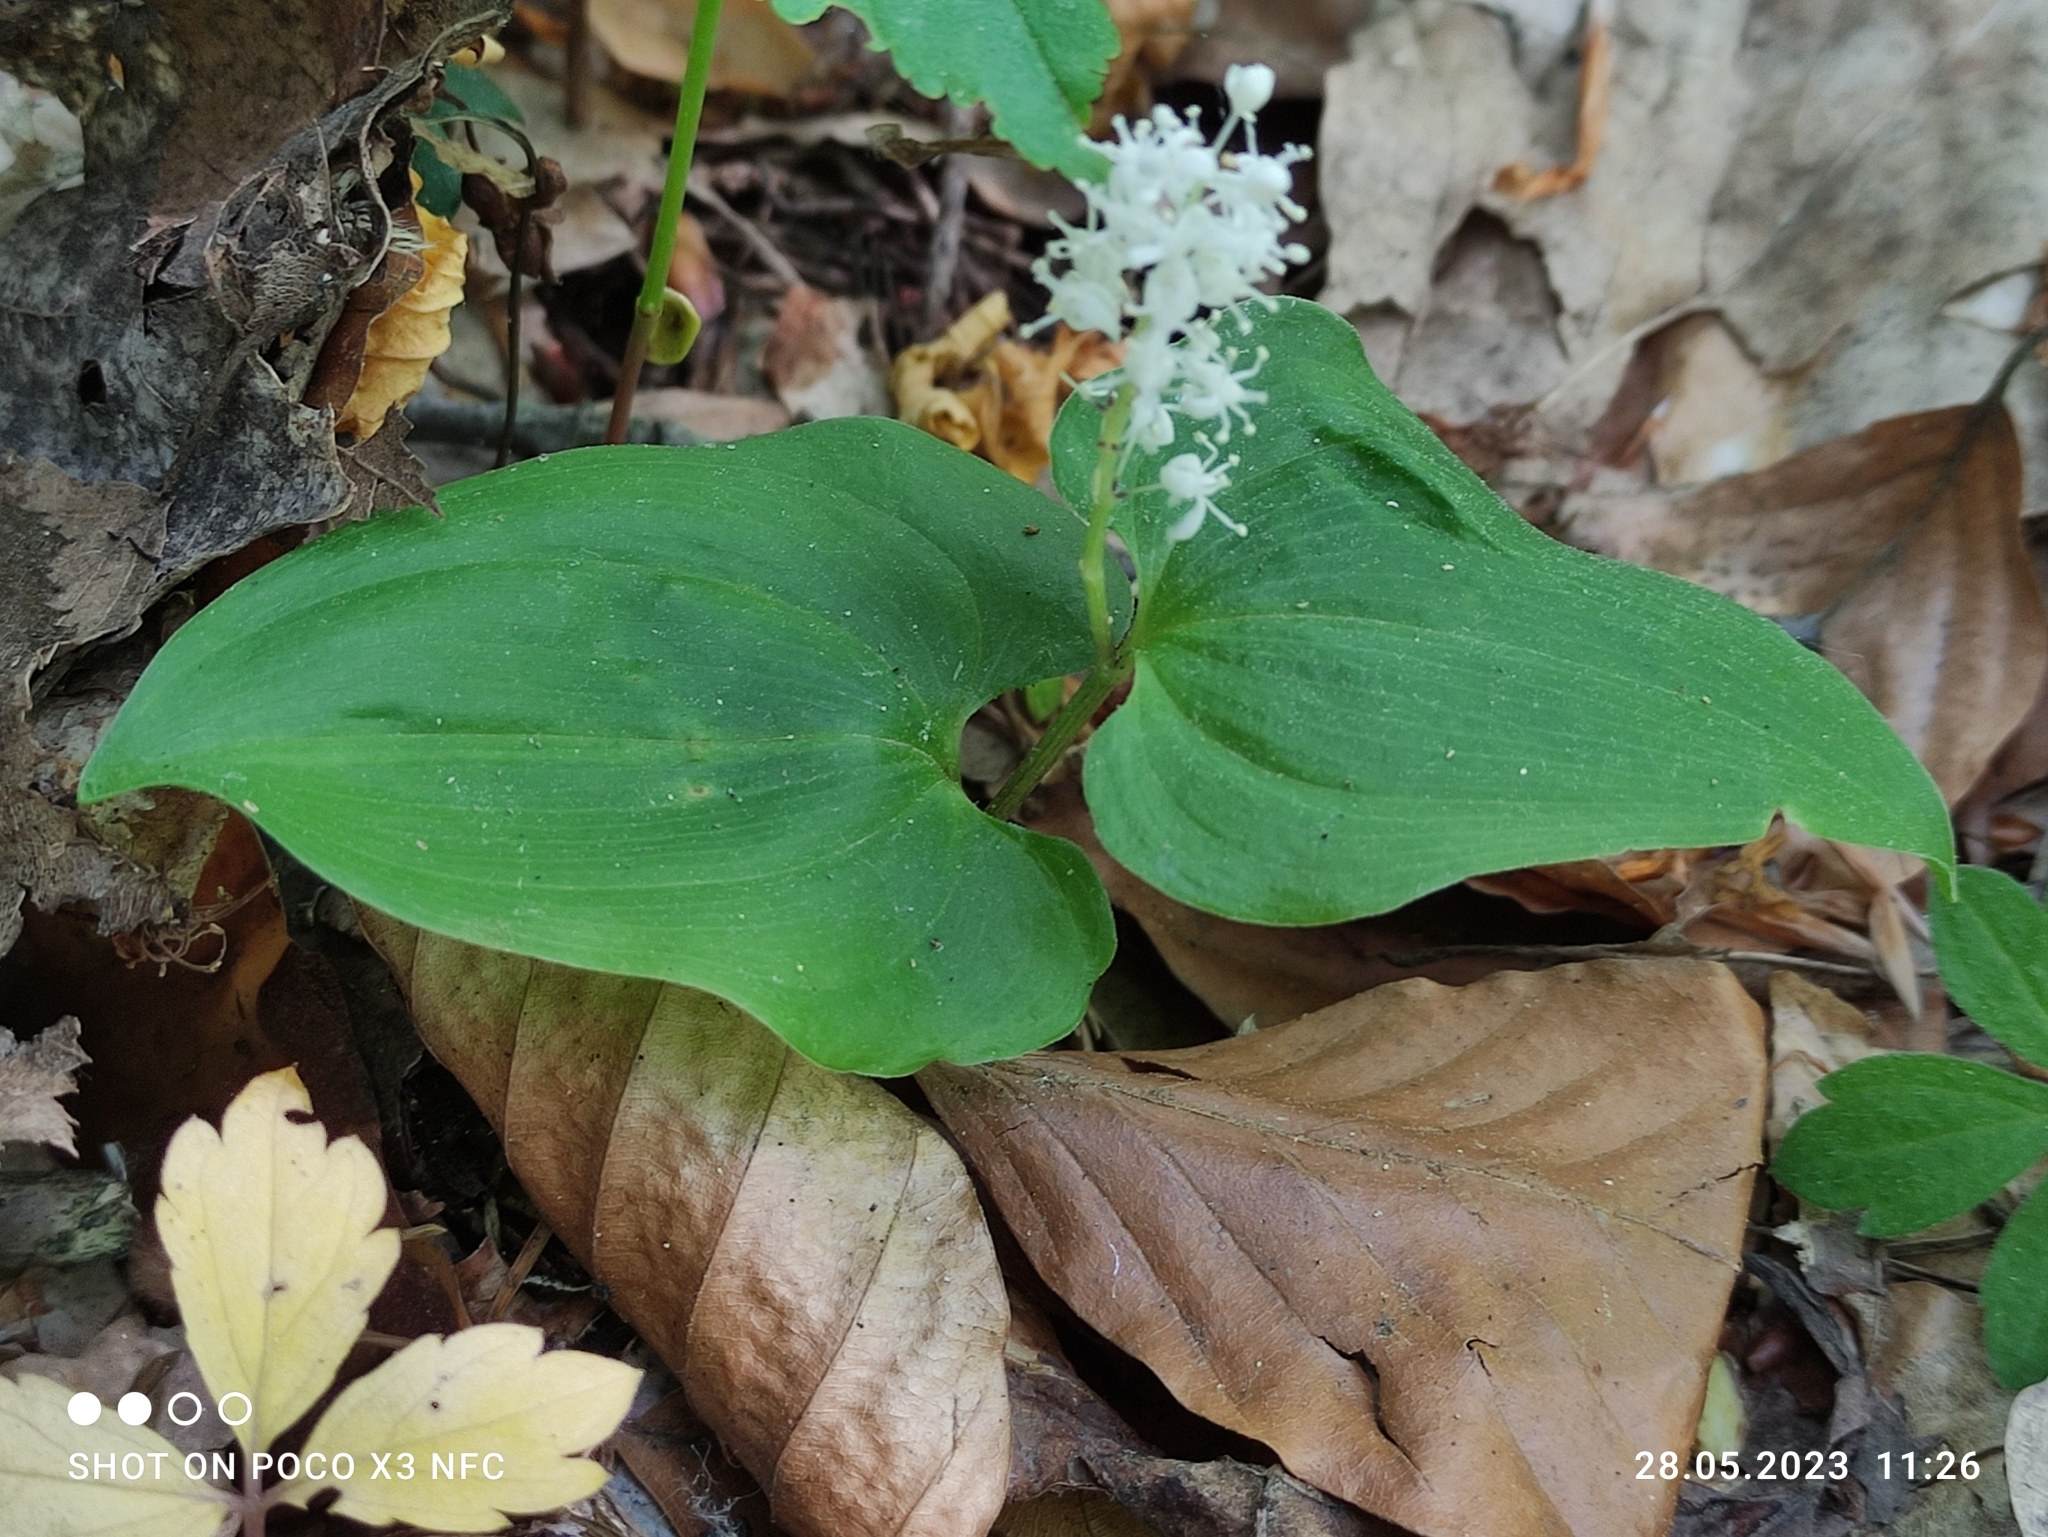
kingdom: Plantae
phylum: Tracheophyta
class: Liliopsida
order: Asparagales
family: Asparagaceae
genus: Maianthemum
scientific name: Maianthemum bifolium
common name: May lily
